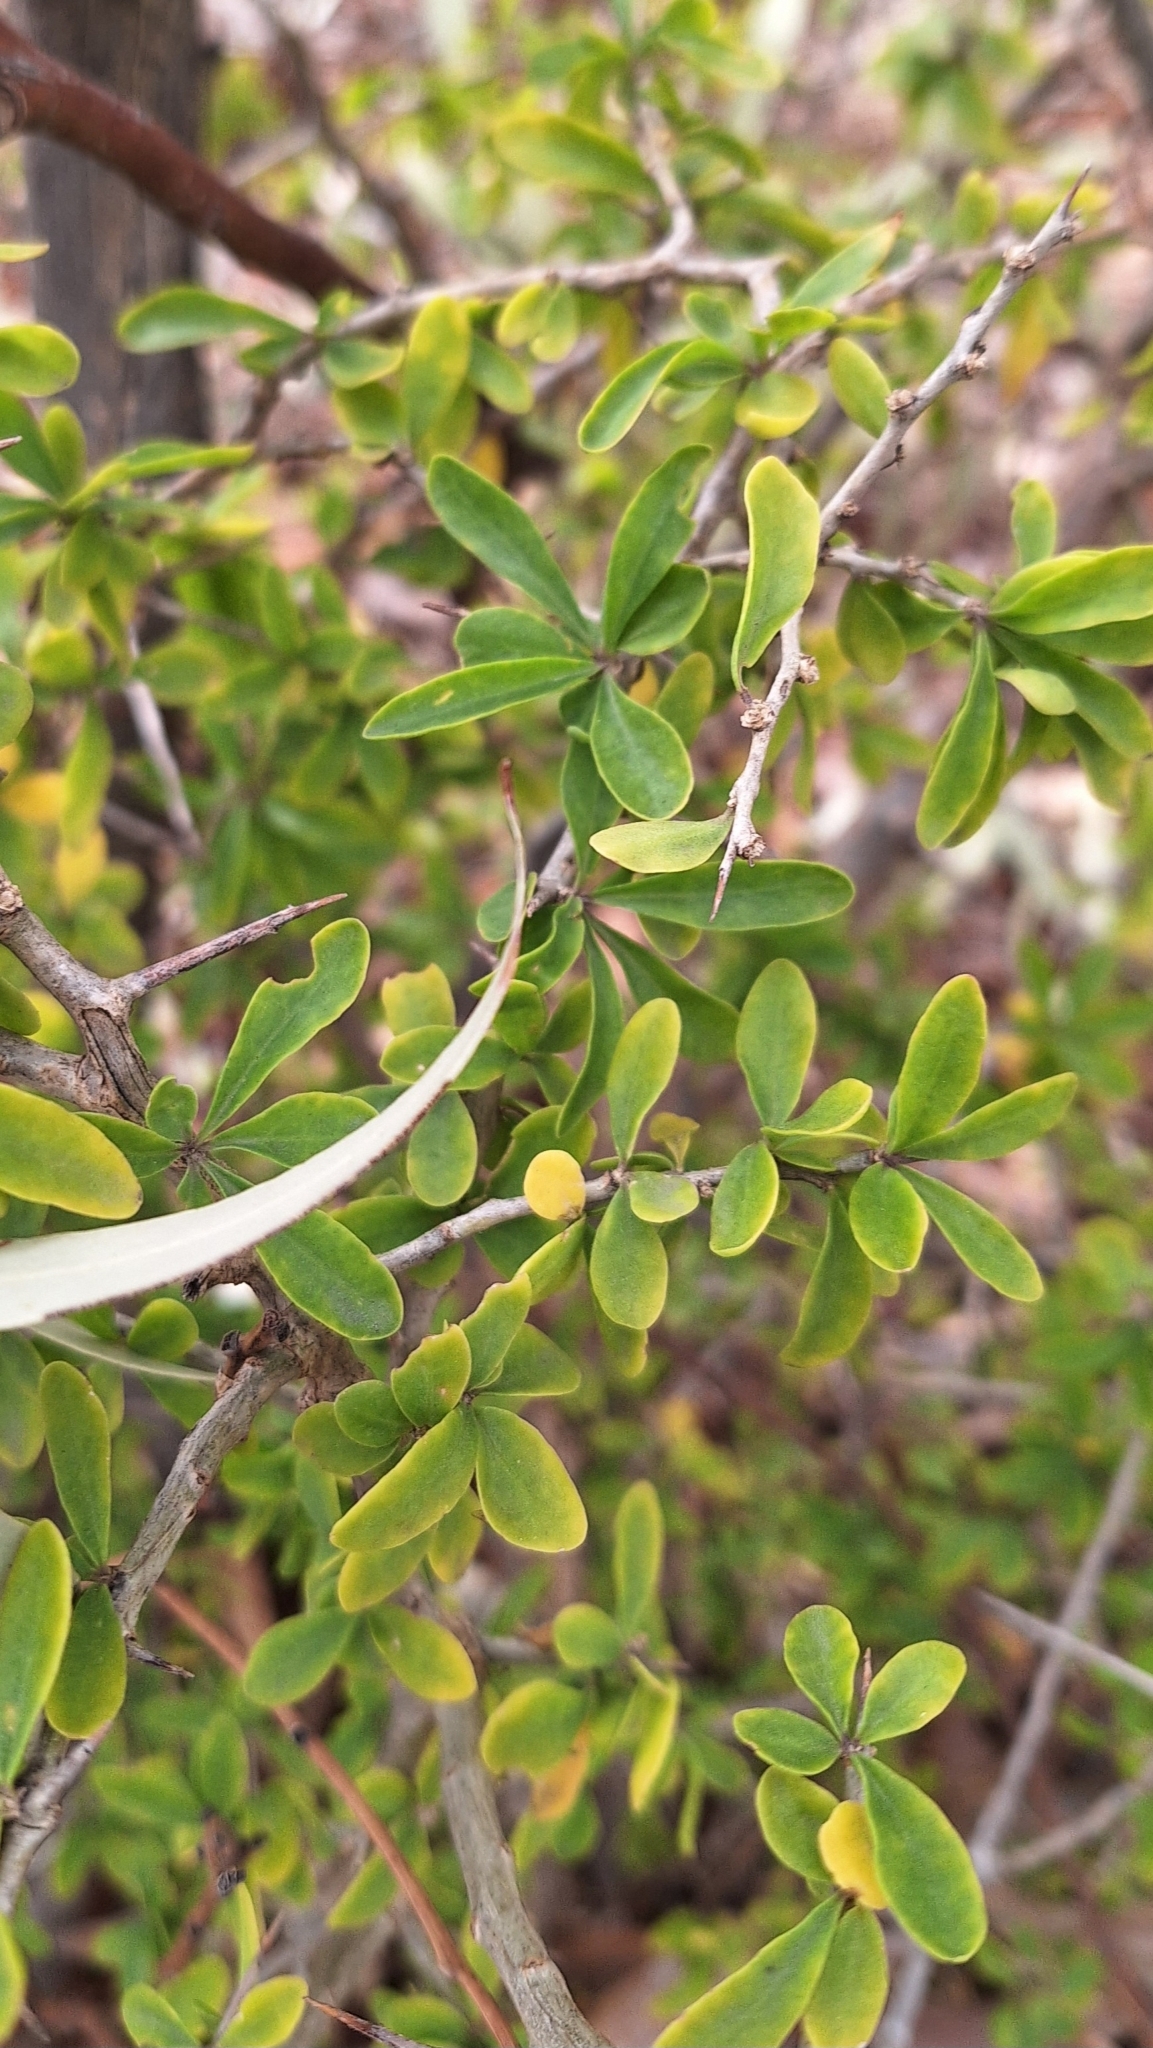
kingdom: Plantae
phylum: Tracheophyta
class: Magnoliopsida
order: Solanales
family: Solanaceae
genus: Lycium
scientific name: Lycium ferocissimum
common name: African boxthorn
